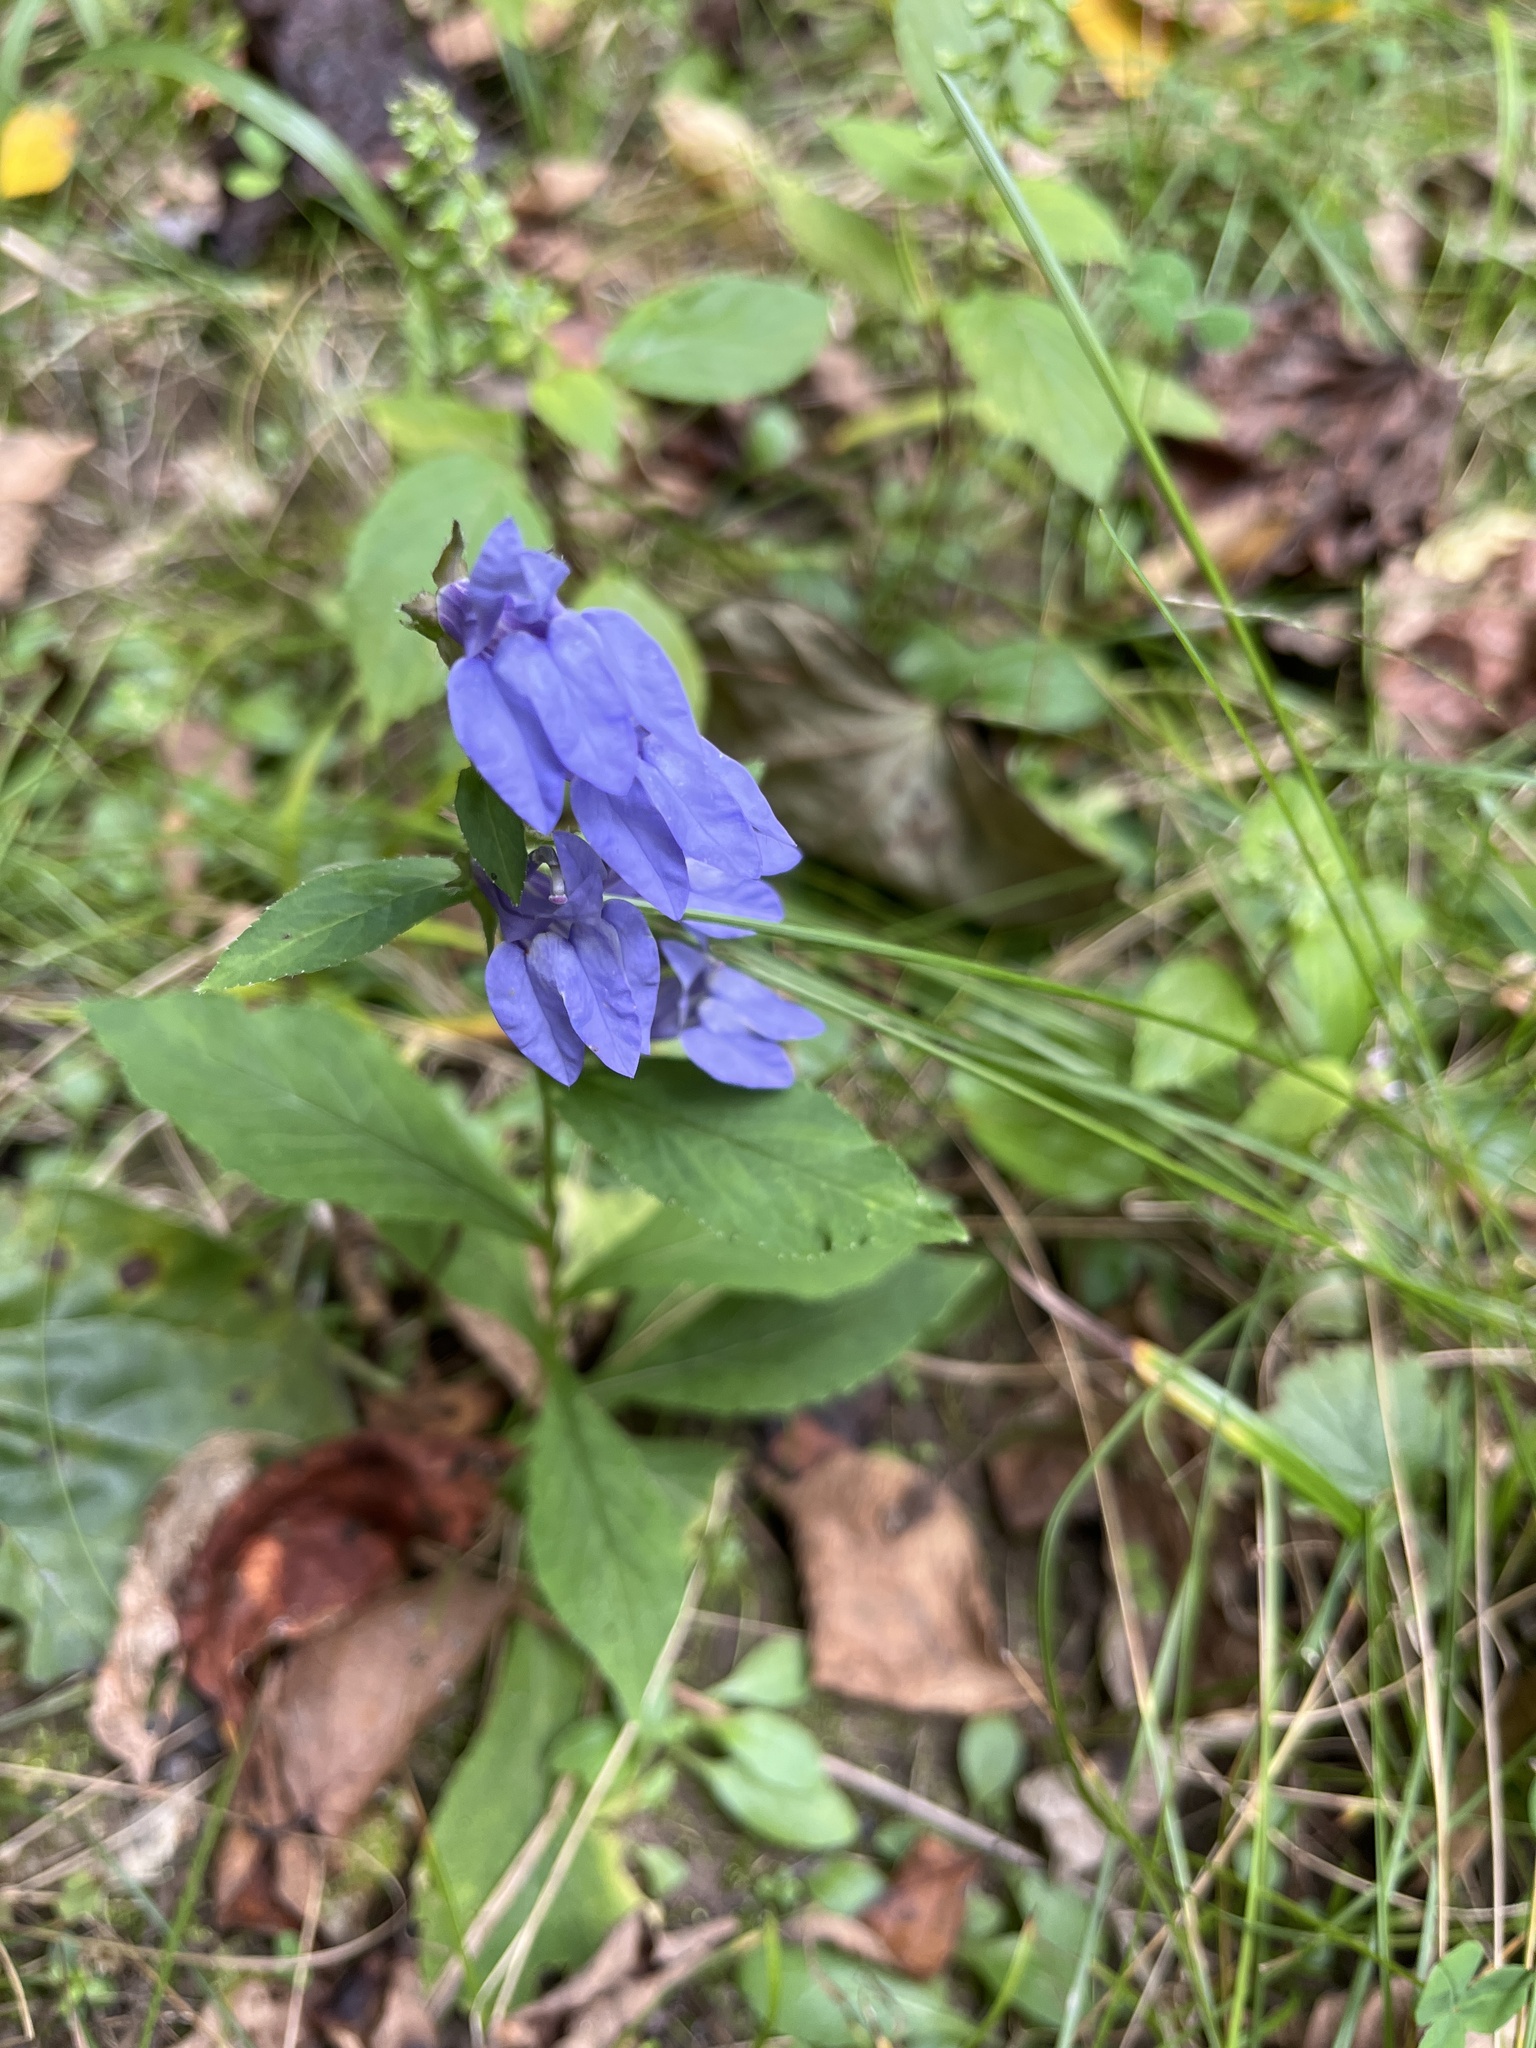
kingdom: Plantae
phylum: Tracheophyta
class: Magnoliopsida
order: Asterales
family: Campanulaceae
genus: Lobelia
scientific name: Lobelia siphilitica
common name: Great lobelia
